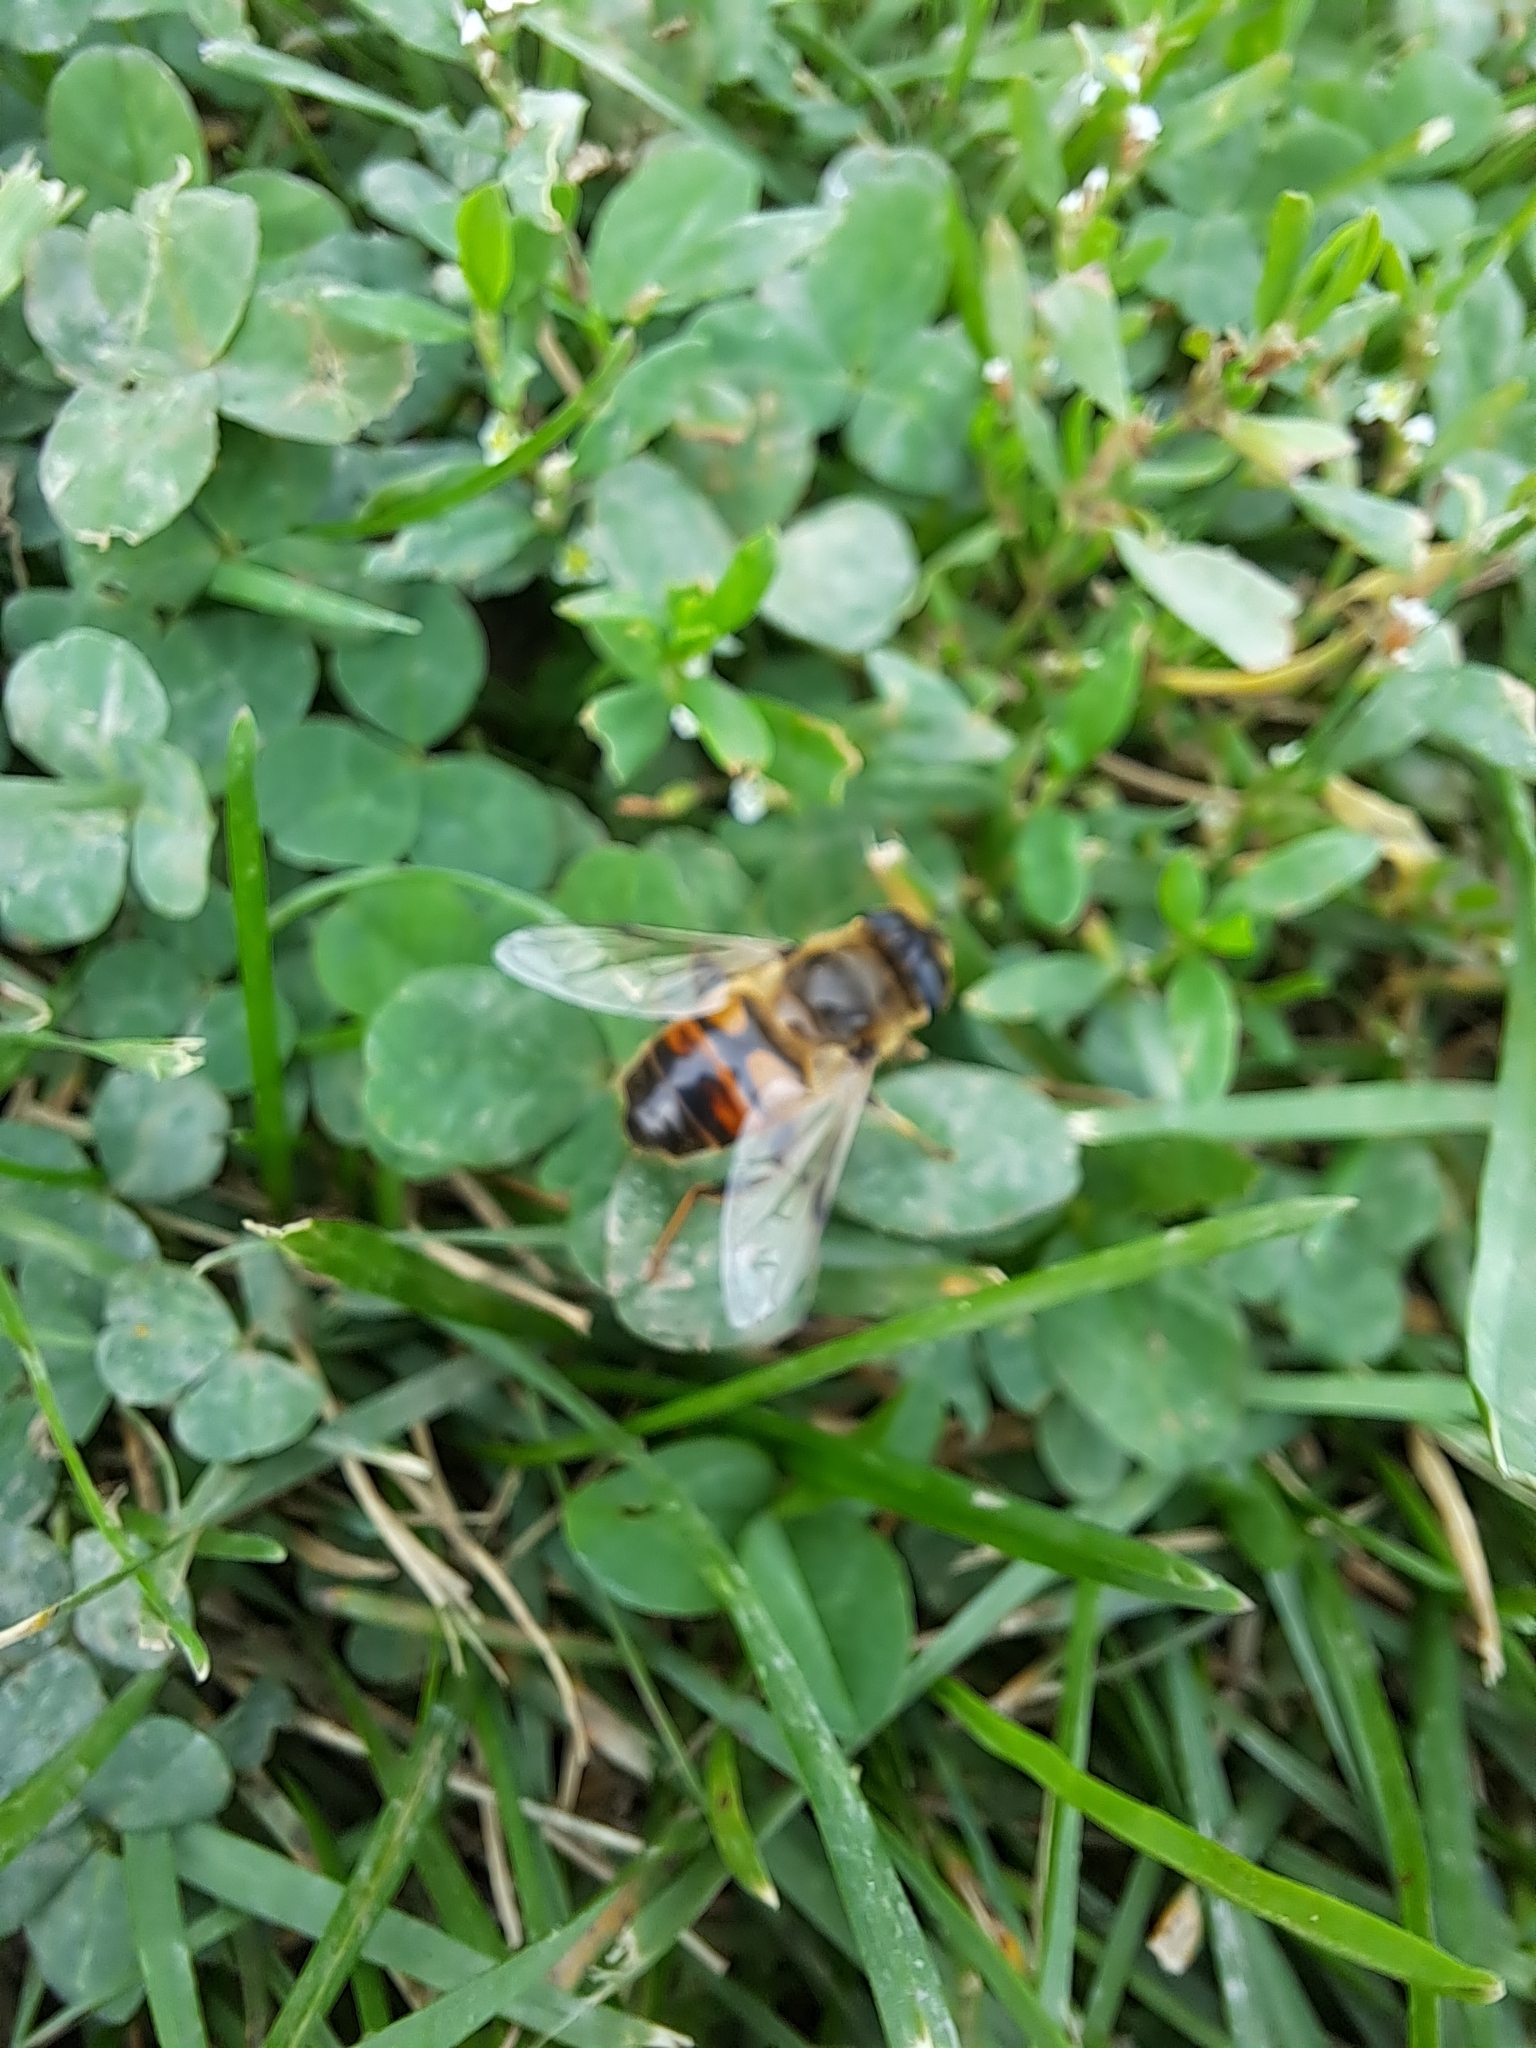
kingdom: Animalia
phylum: Arthropoda
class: Insecta
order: Diptera
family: Syrphidae
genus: Eristalis
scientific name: Eristalis tenax
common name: Drone fly
